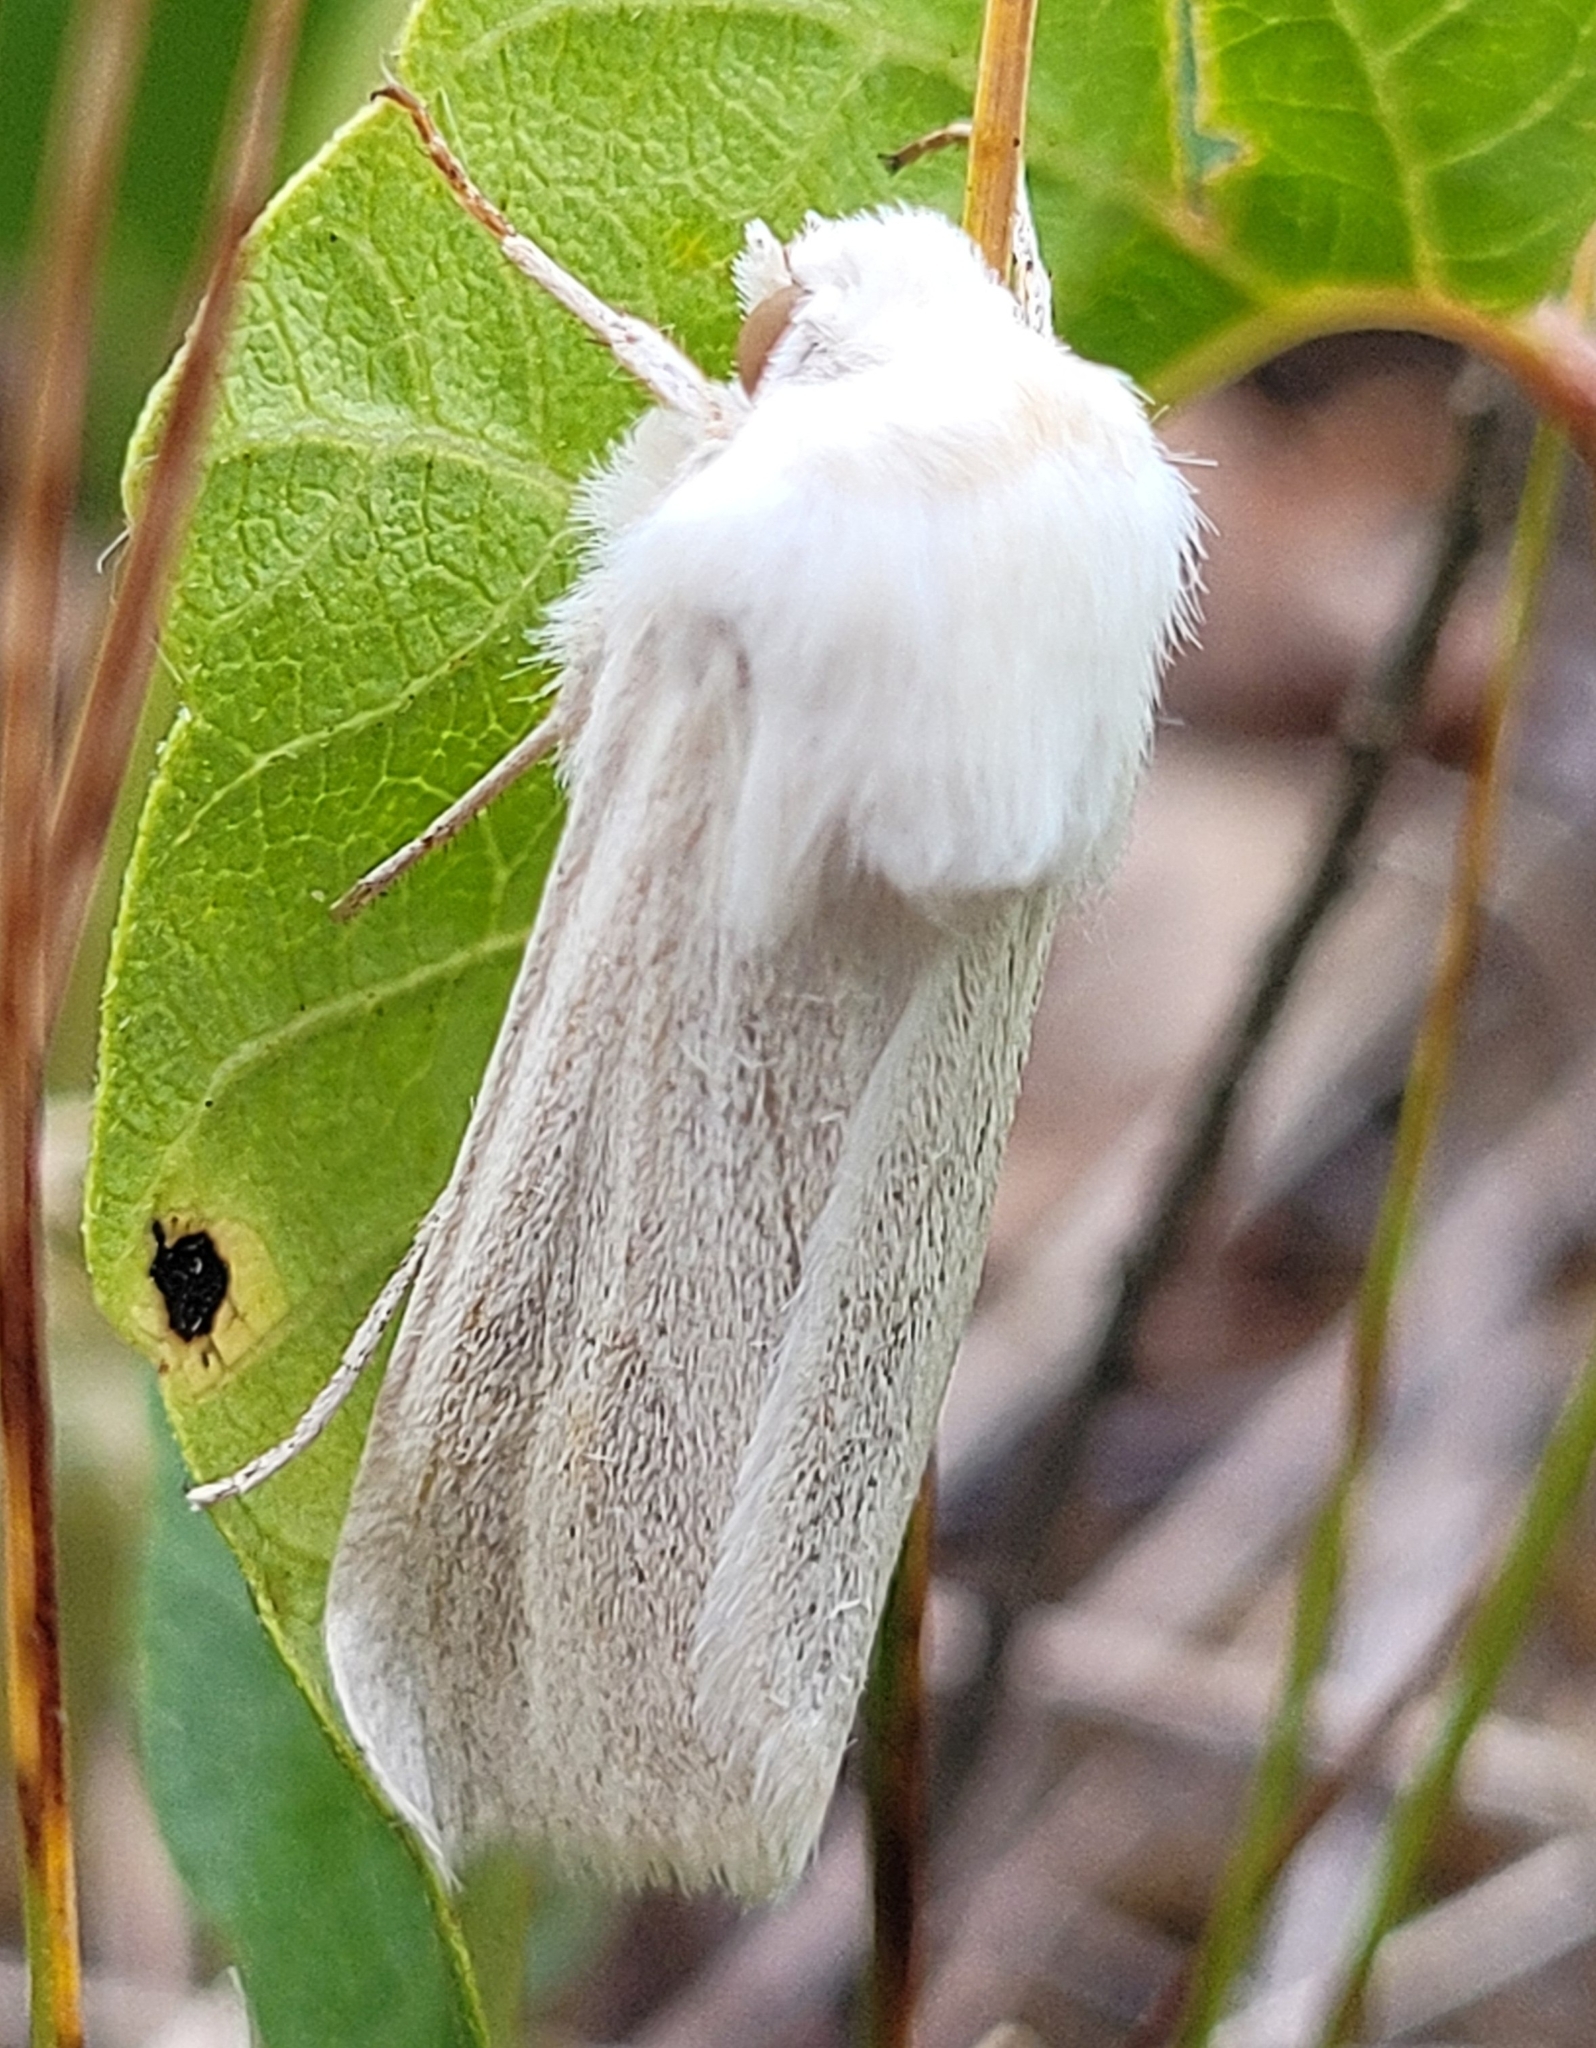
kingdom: Animalia
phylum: Arthropoda
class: Insecta
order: Lepidoptera
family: Noctuidae
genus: Copablepharon
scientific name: Copablepharon viridisparsa
